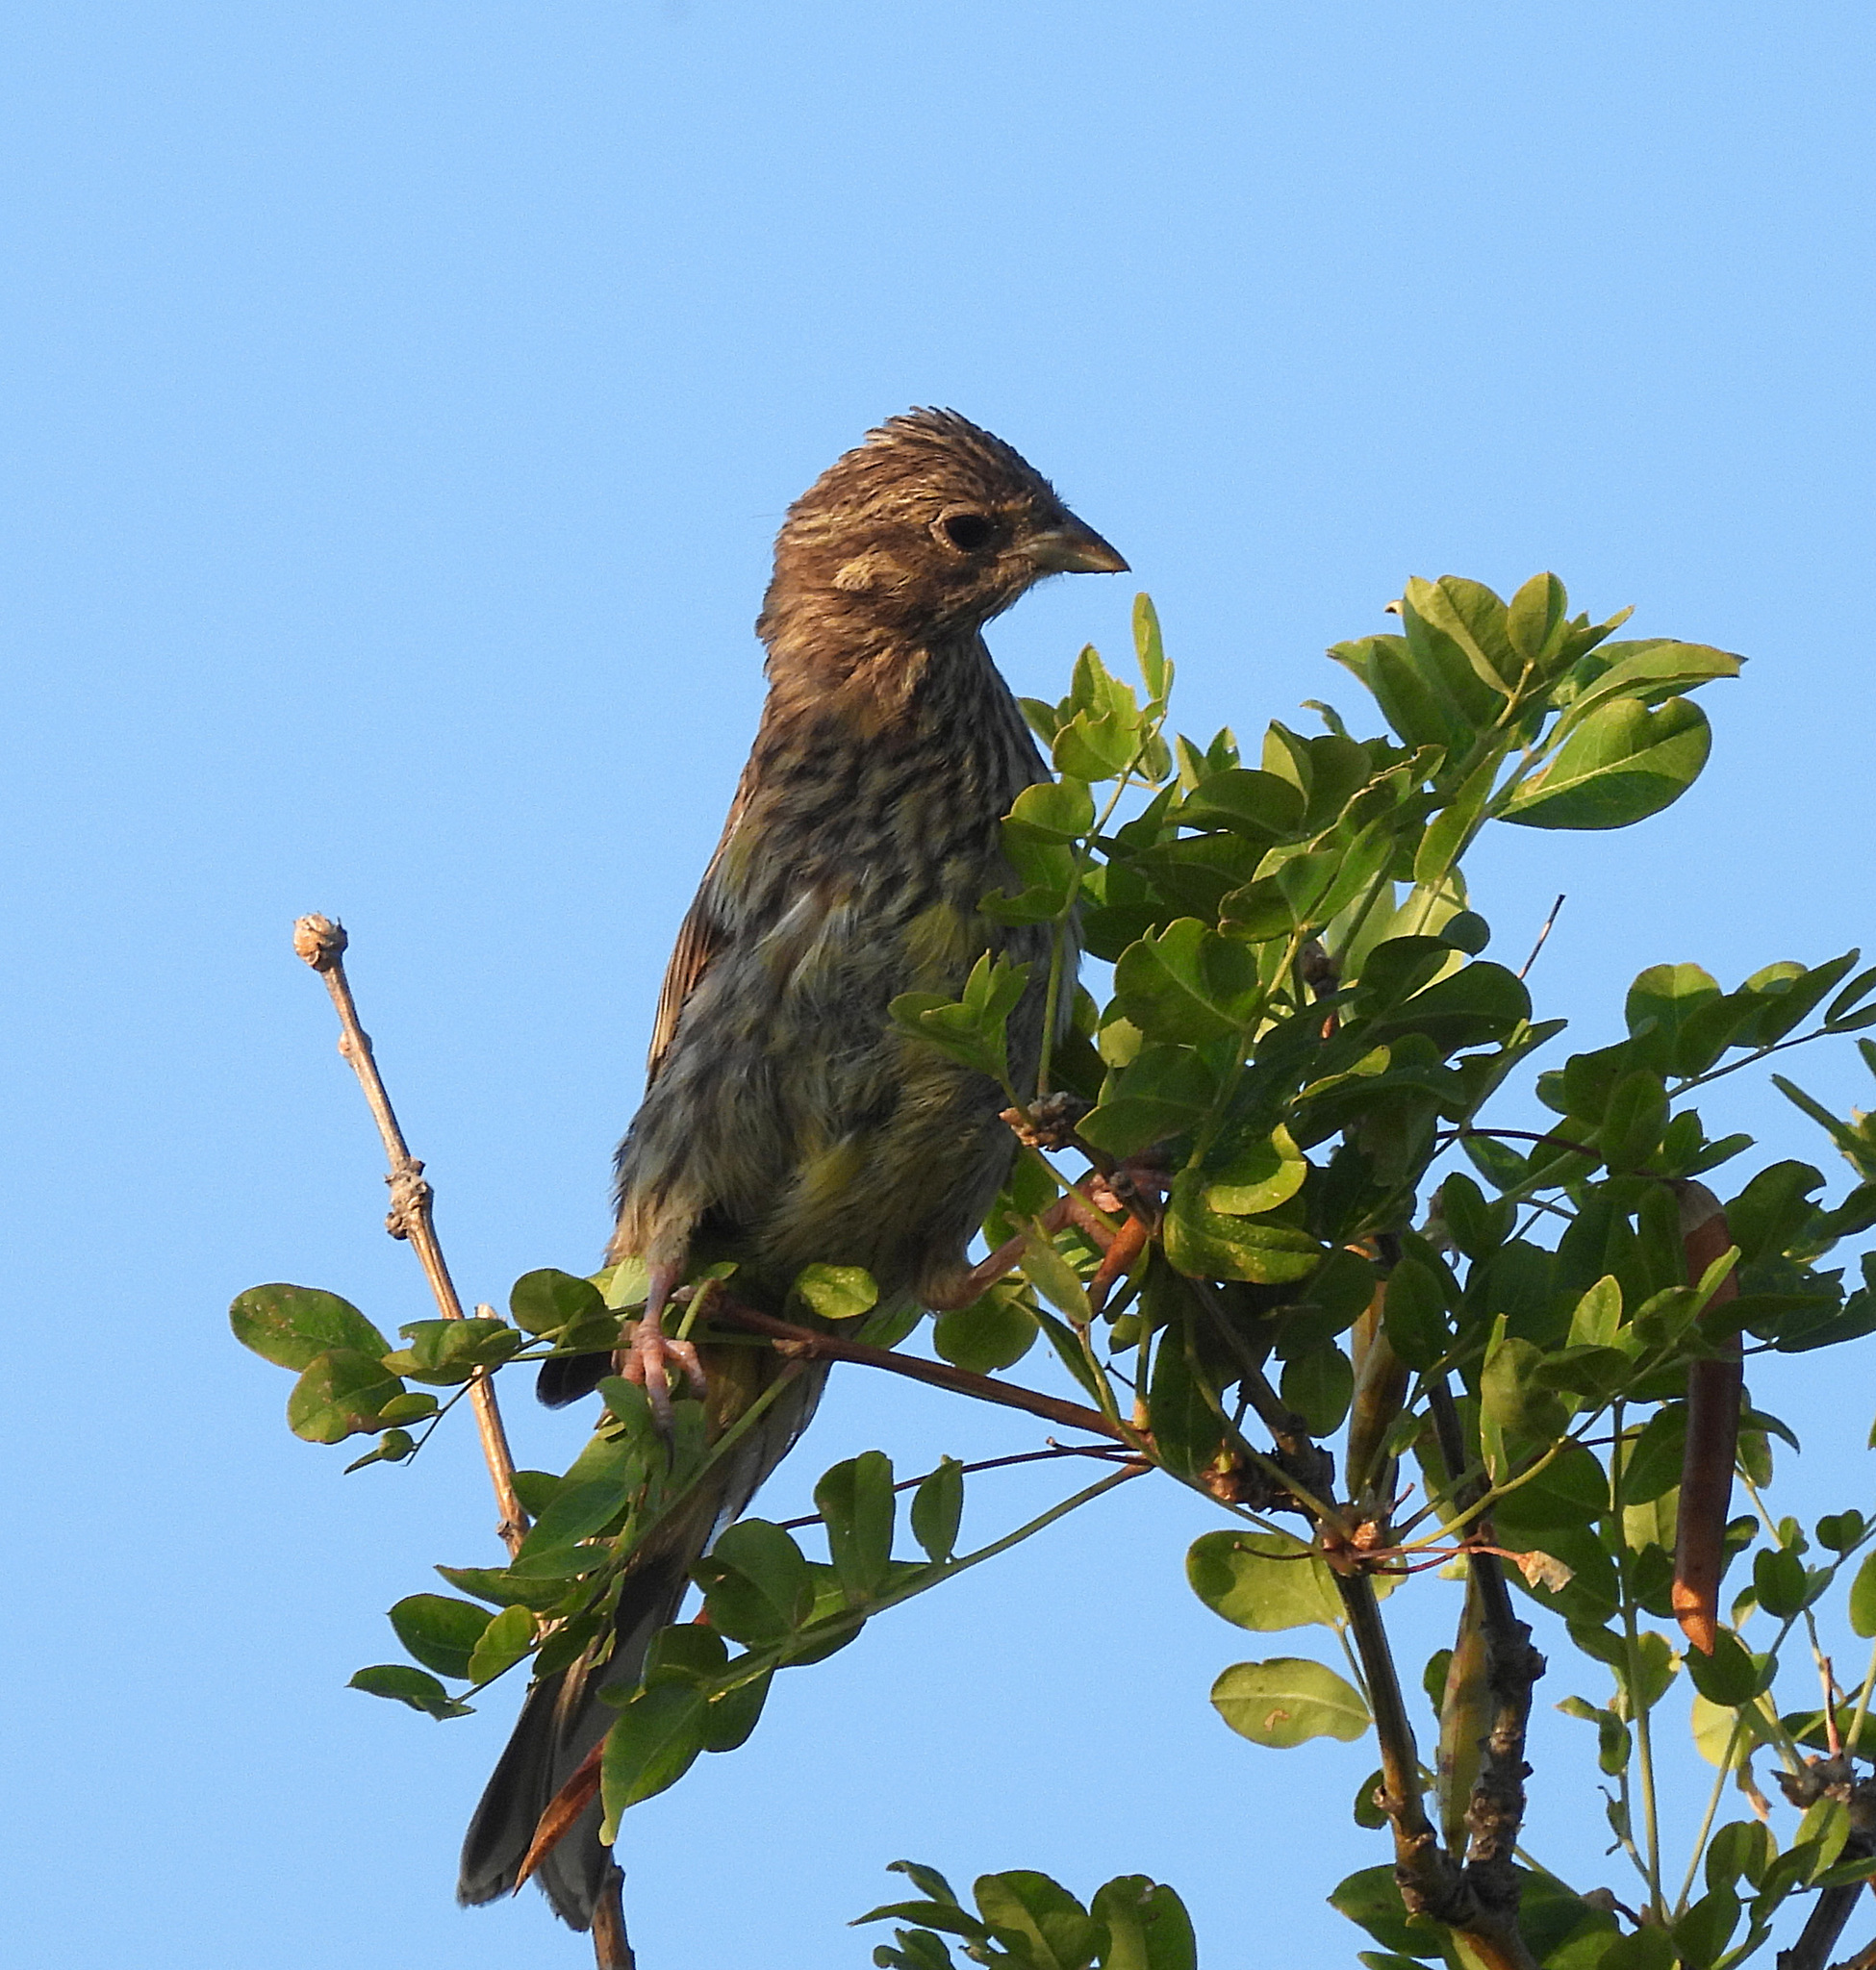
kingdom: Animalia
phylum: Chordata
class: Aves
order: Passeriformes
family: Emberizidae
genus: Emberiza
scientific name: Emberiza citrinella
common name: Yellowhammer
